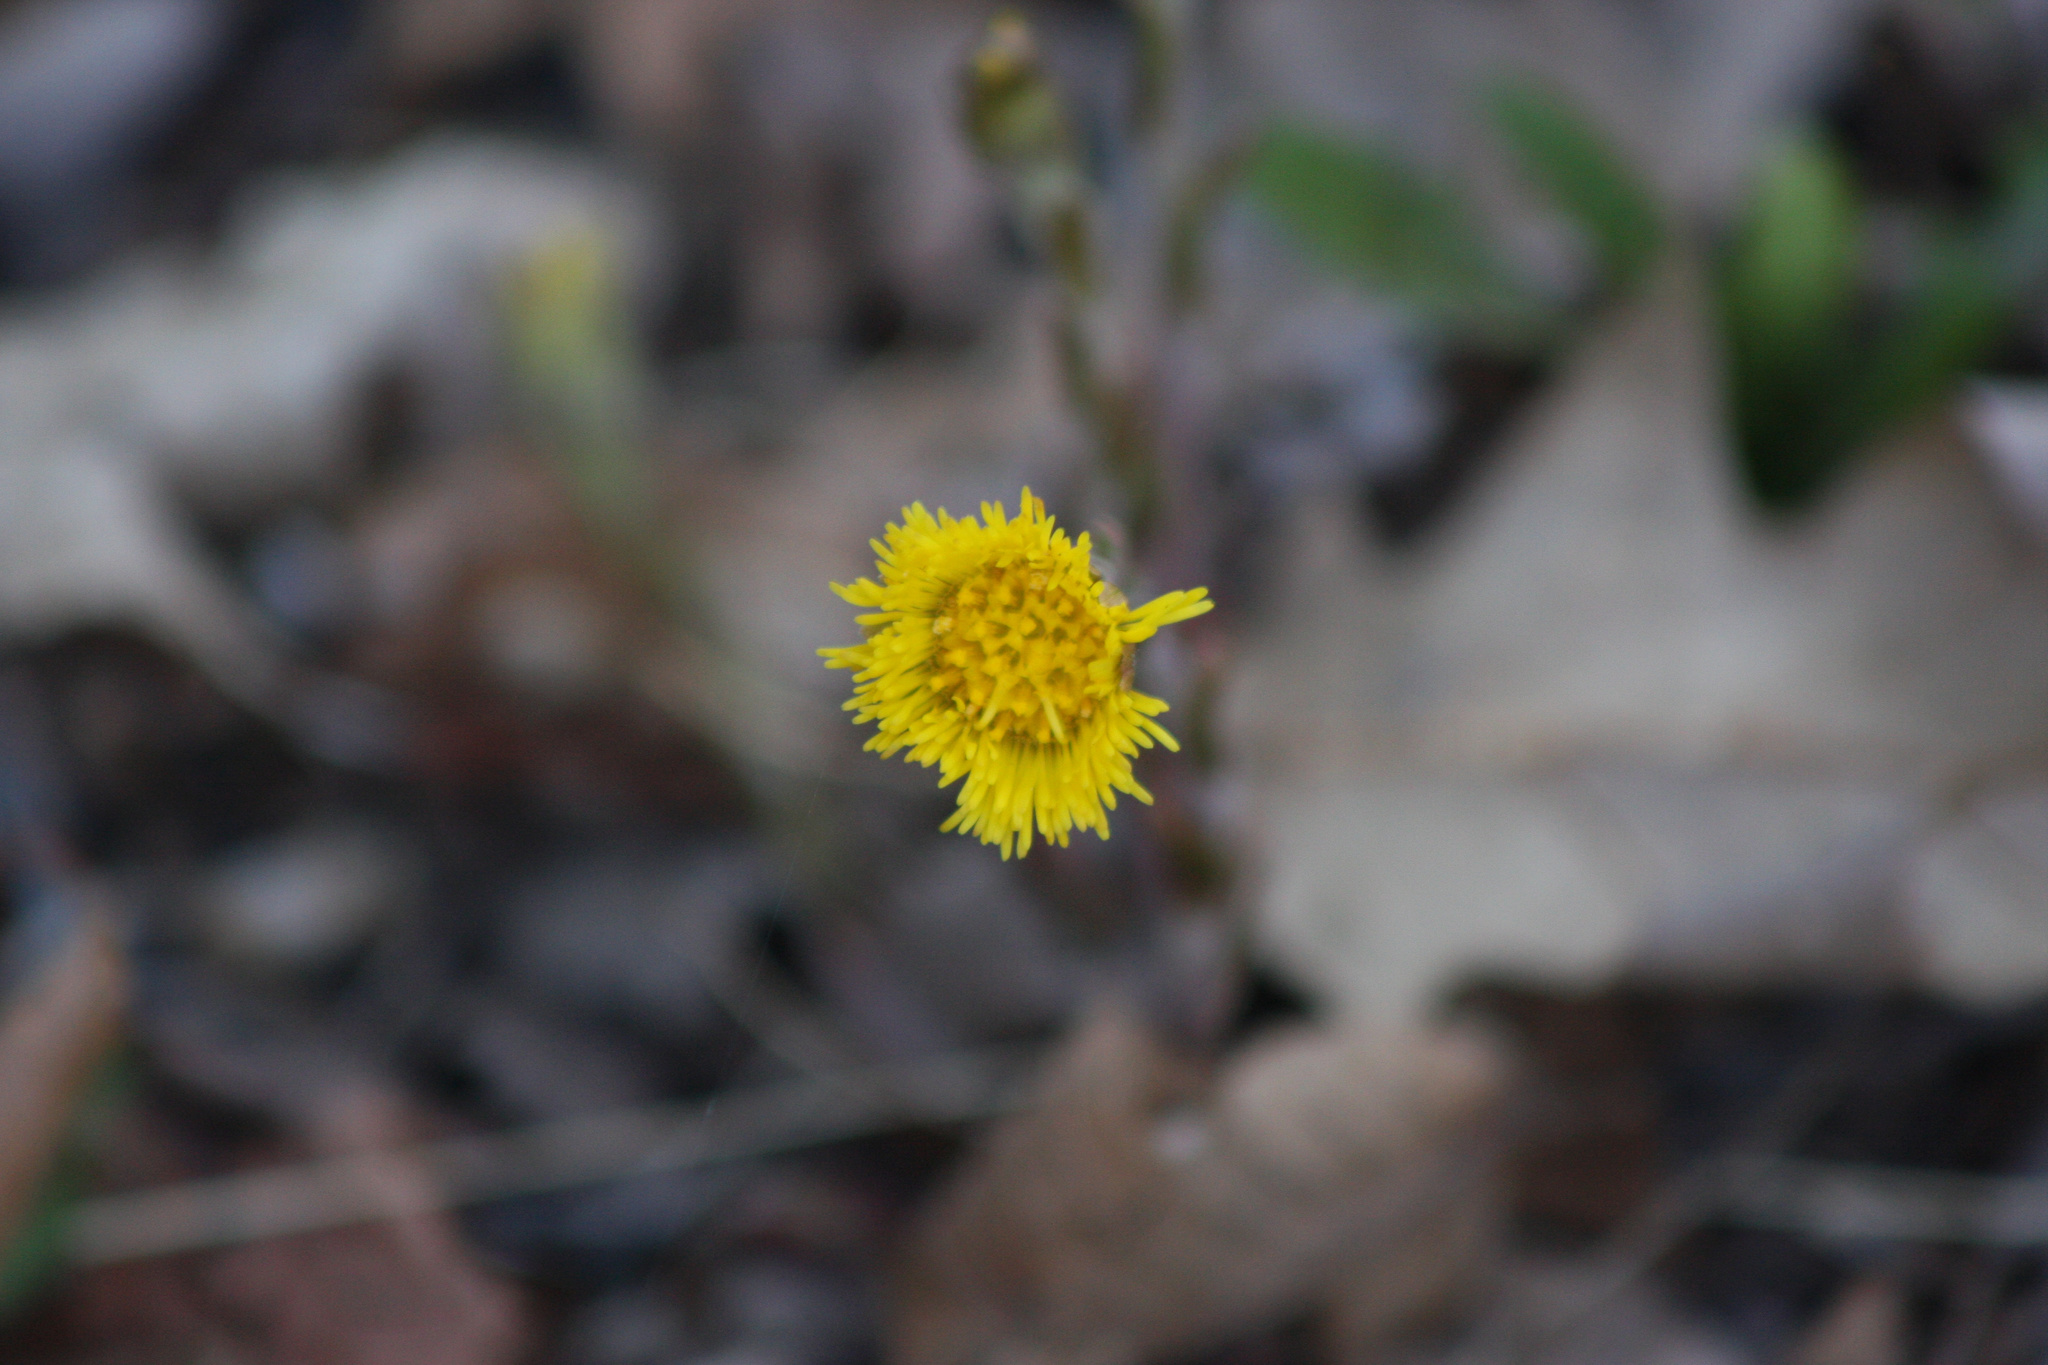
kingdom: Plantae
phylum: Tracheophyta
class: Magnoliopsida
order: Asterales
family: Asteraceae
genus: Tussilago
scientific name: Tussilago farfara
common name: Coltsfoot
